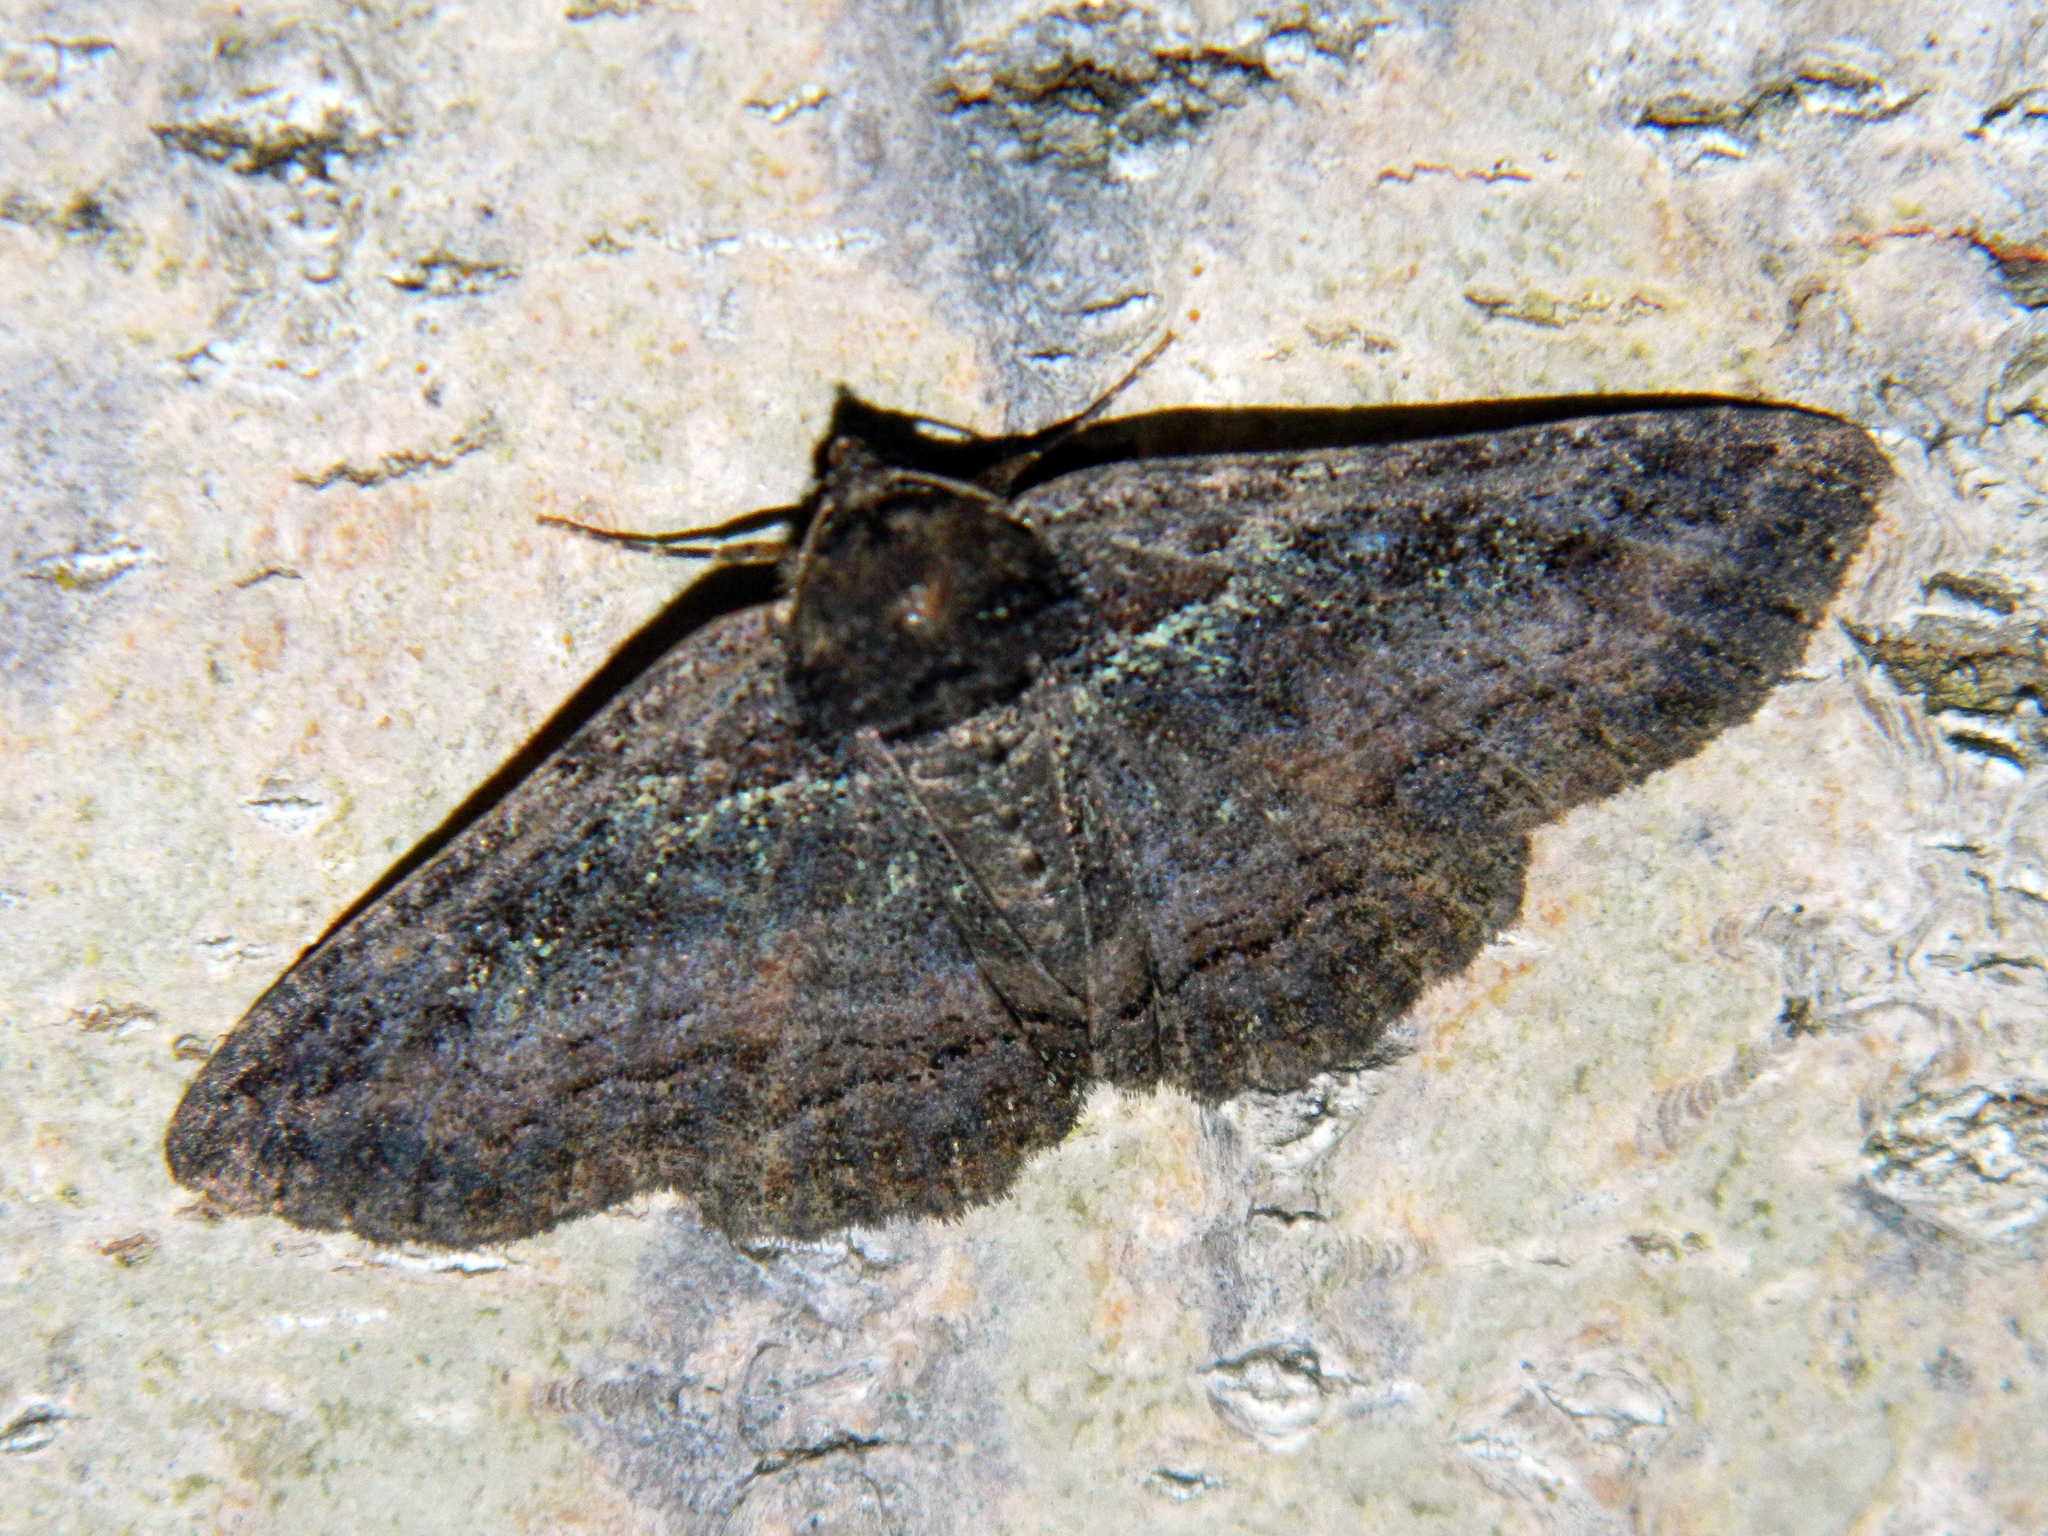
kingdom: Animalia
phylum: Arthropoda
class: Insecta
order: Lepidoptera
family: Erebidae
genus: Zale
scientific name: Zale aeruginosa
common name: Green-dusted zale moth
